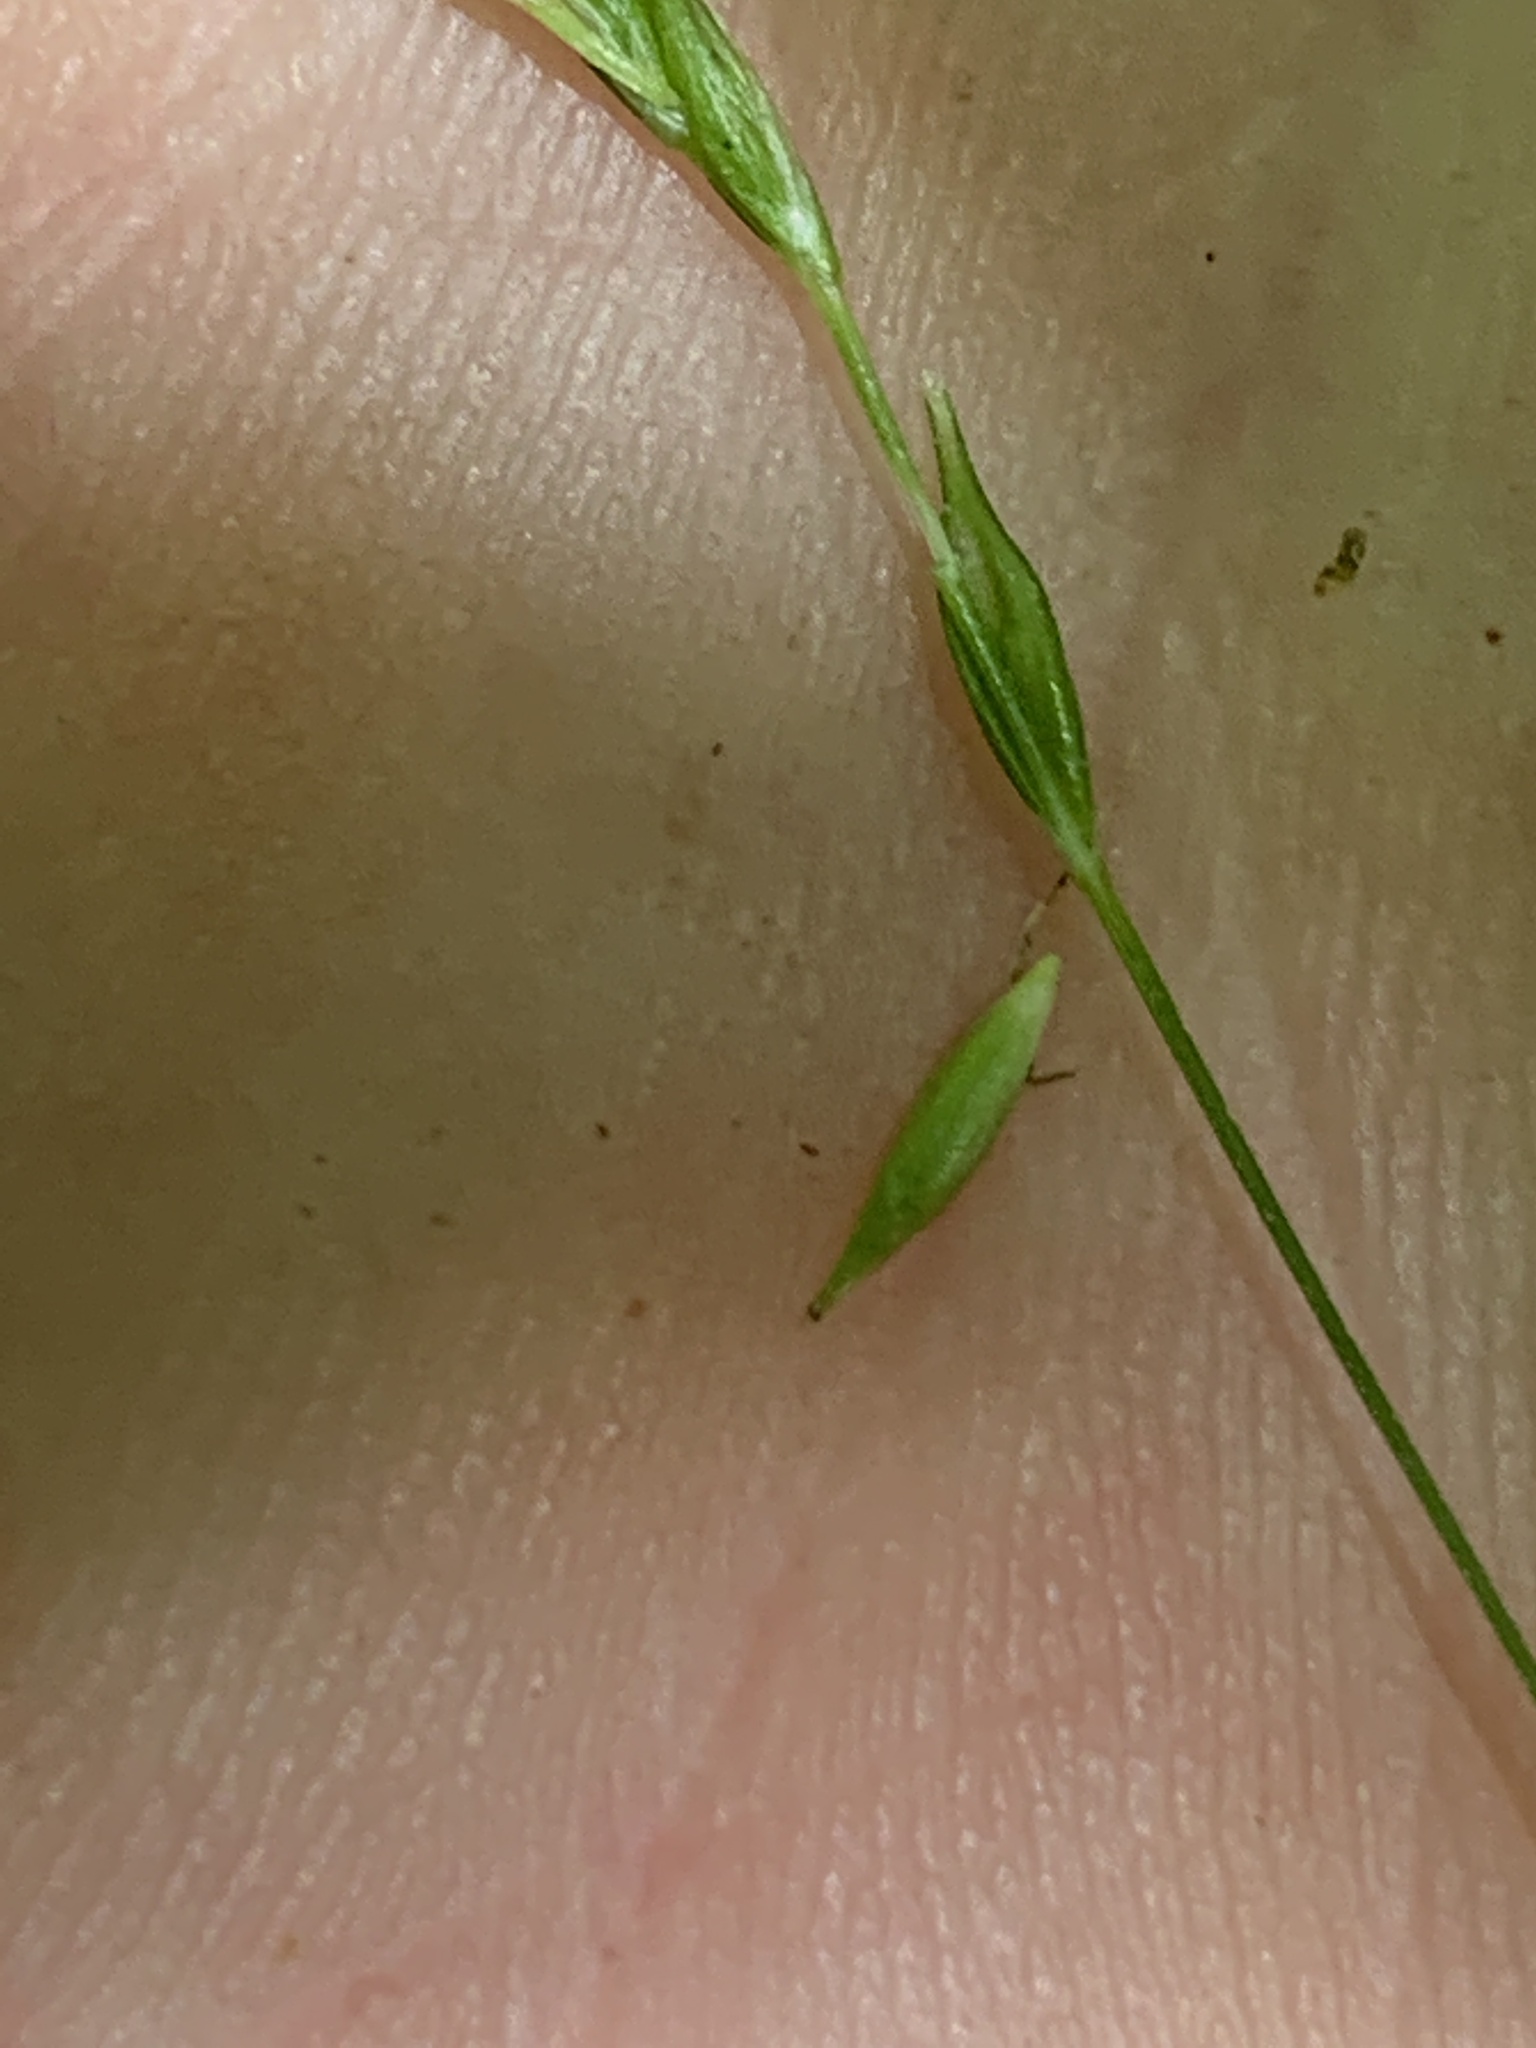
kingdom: Plantae
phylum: Tracheophyta
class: Liliopsida
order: Poales
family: Cyperaceae
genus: Carex
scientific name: Carex debilis
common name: White-edge sedge
